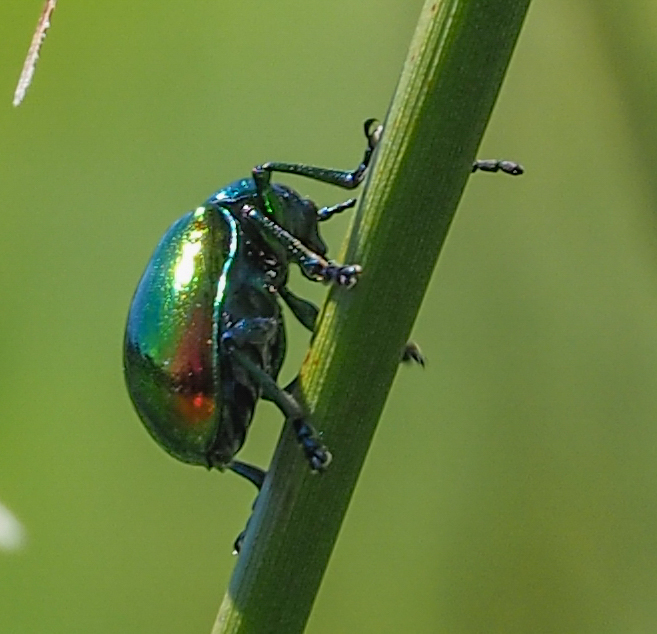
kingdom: Animalia
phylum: Arthropoda
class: Insecta
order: Coleoptera
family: Chrysomelidae
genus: Chrysochus
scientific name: Chrysochus auratus
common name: Dogbane leaf beetle
